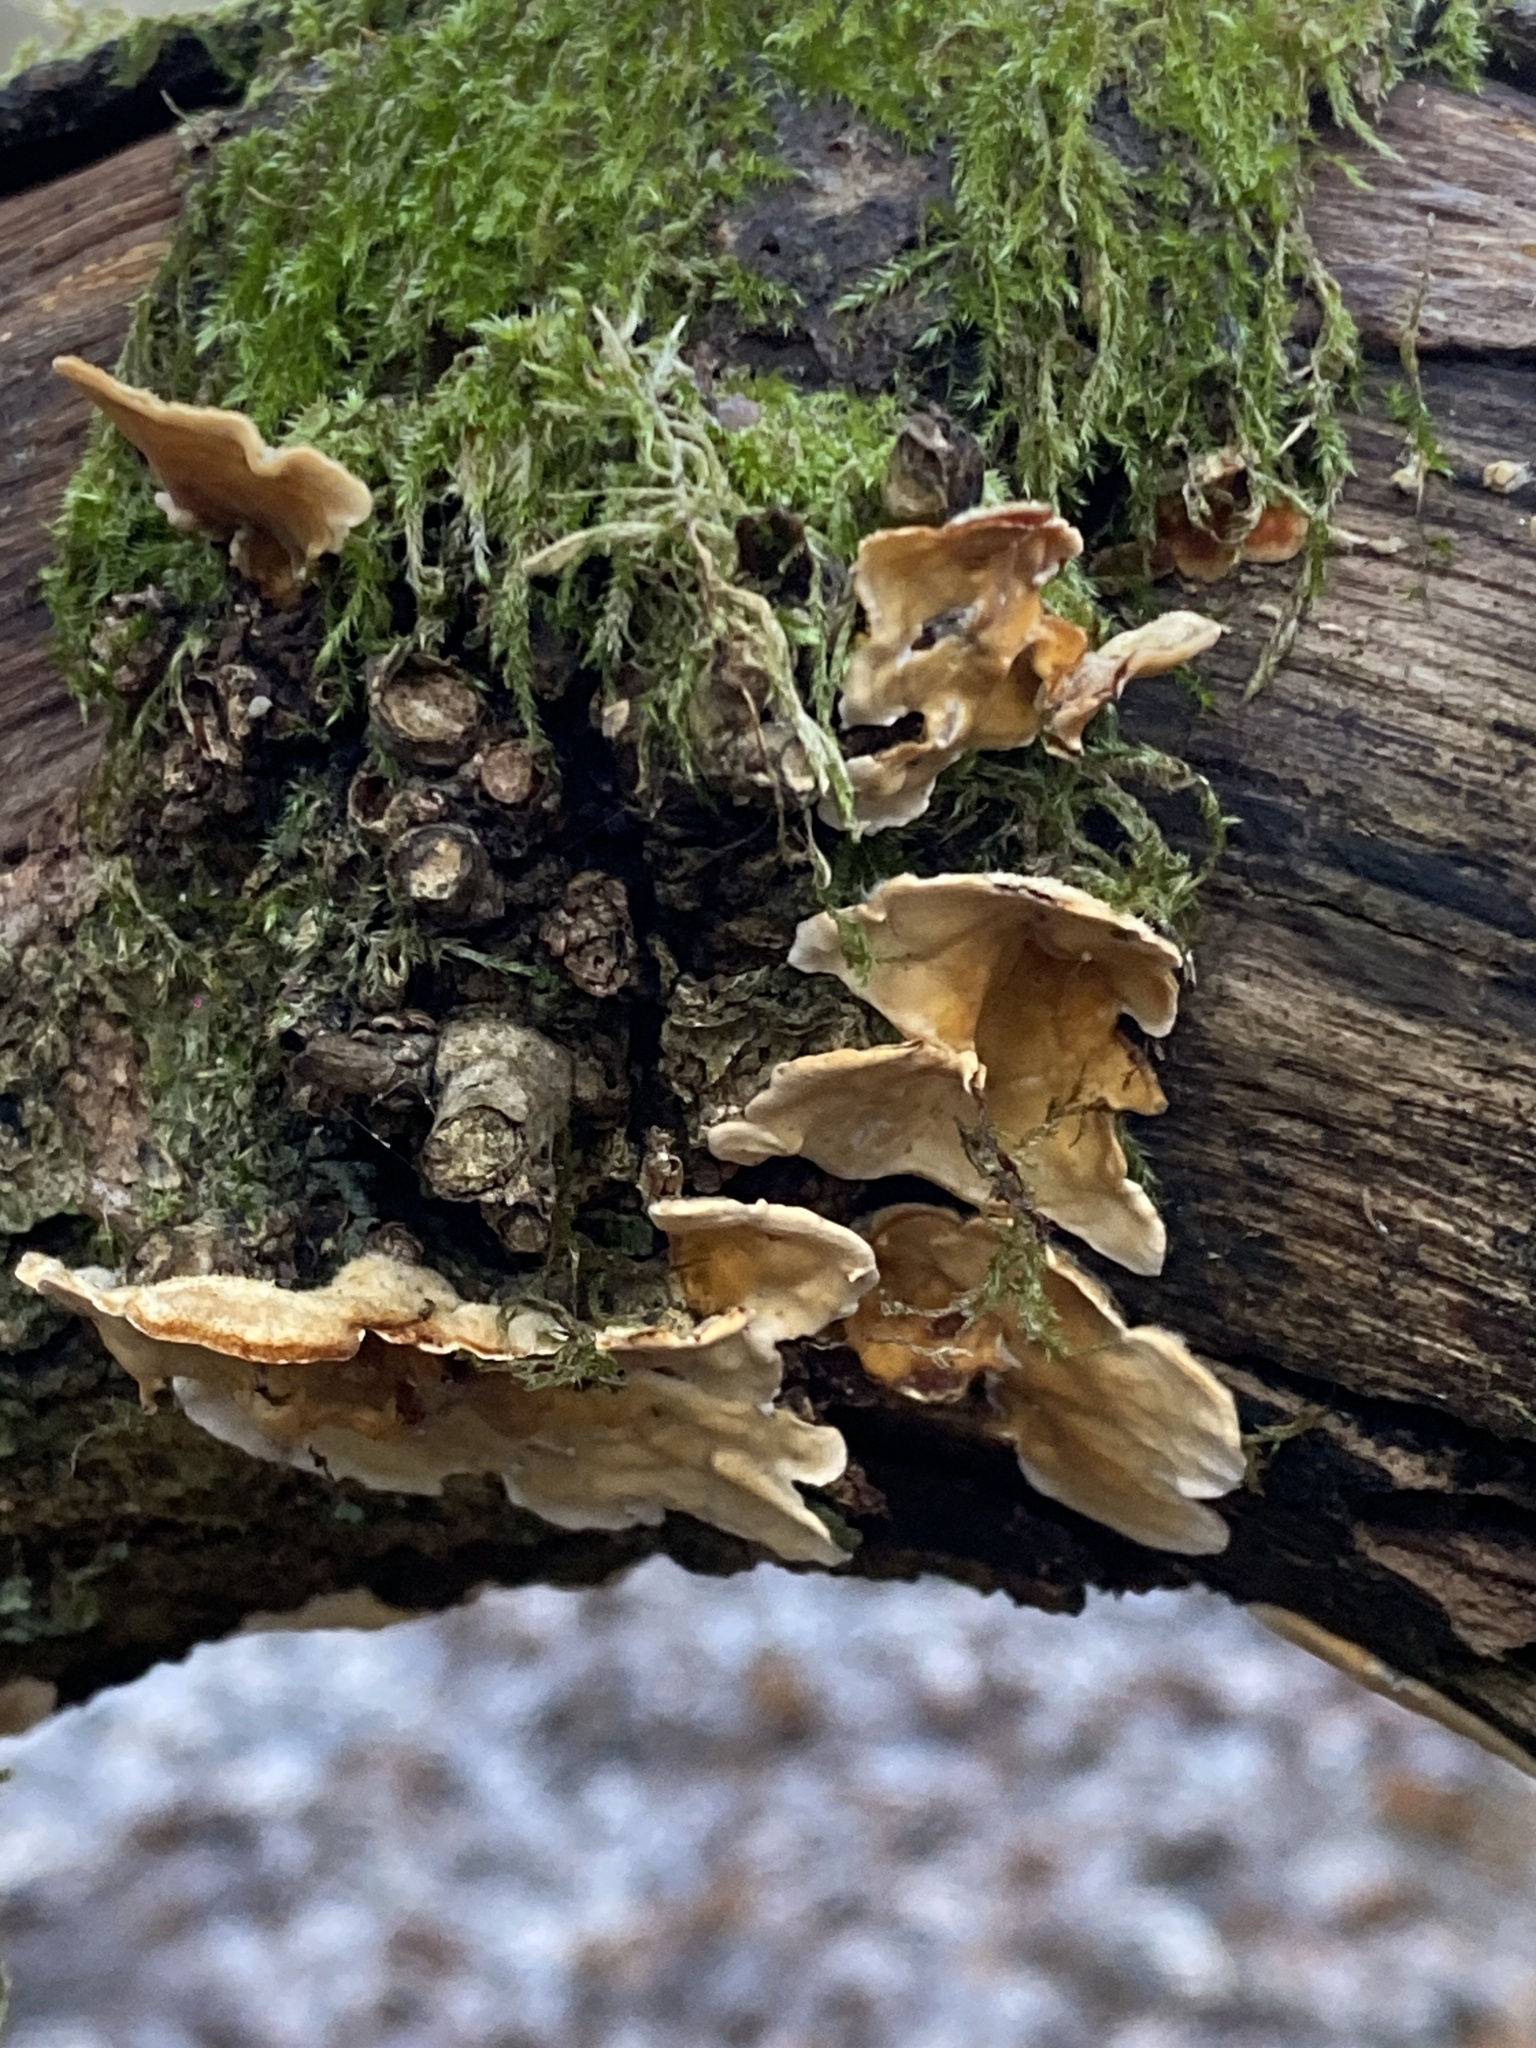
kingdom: Fungi
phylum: Basidiomycota
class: Agaricomycetes
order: Russulales
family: Stereaceae
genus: Stereum
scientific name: Stereum hirsutum
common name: Hairy curtain crust
